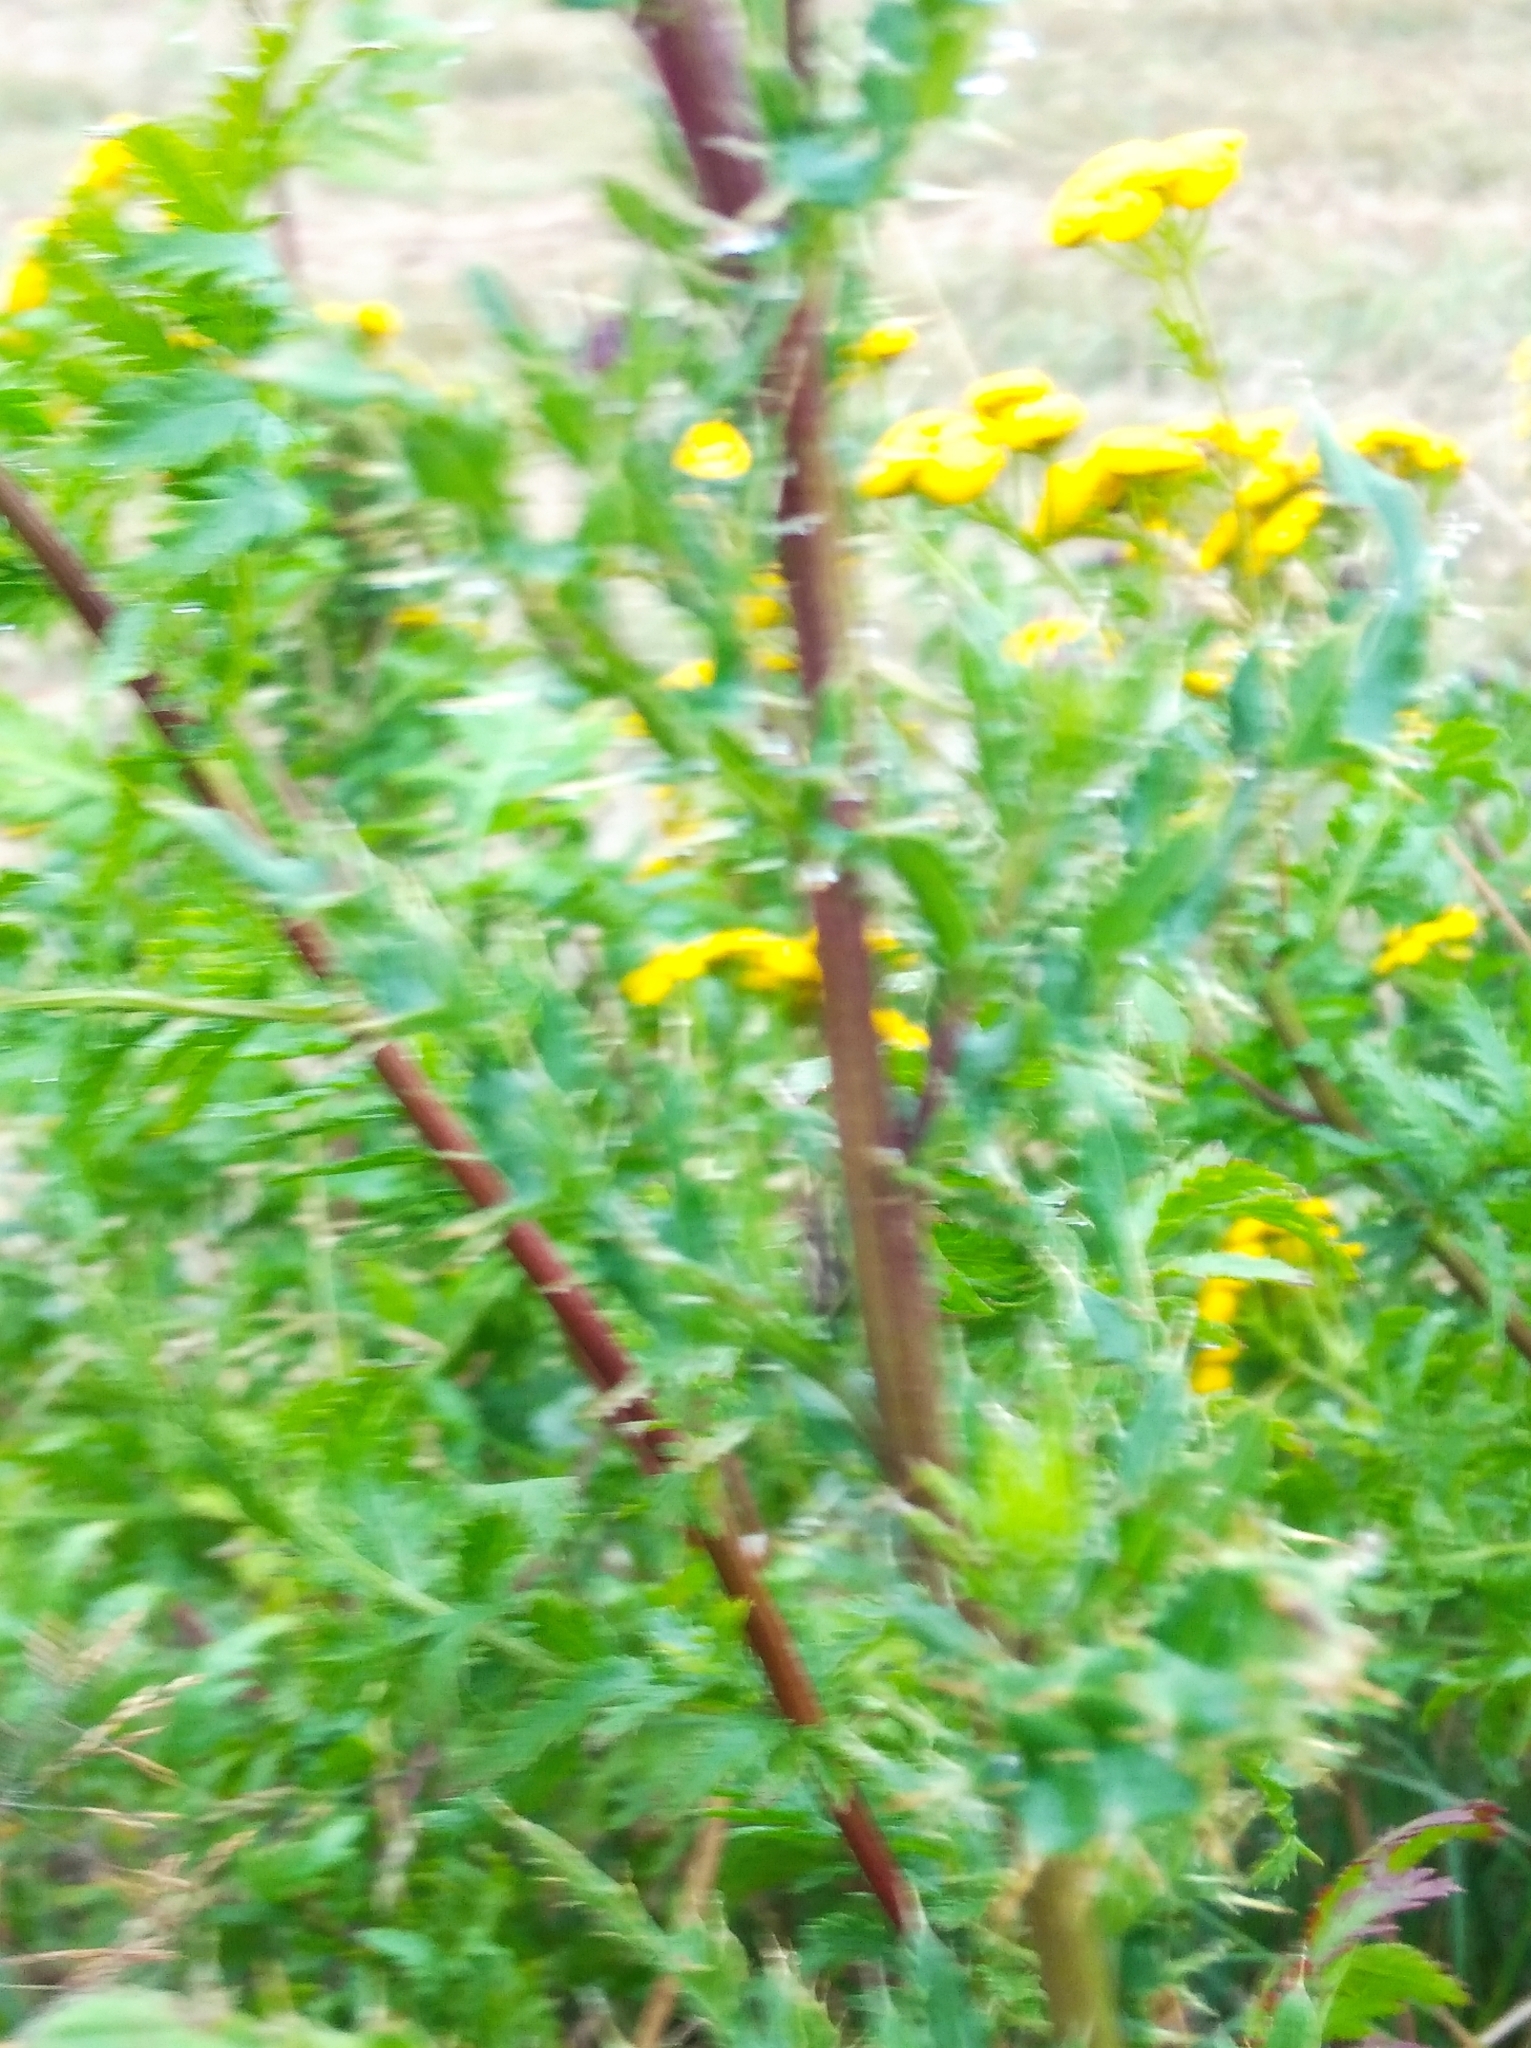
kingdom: Plantae
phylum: Tracheophyta
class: Magnoliopsida
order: Asterales
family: Asteraceae
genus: Serratula
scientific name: Serratula tinctoria
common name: Saw-wort
